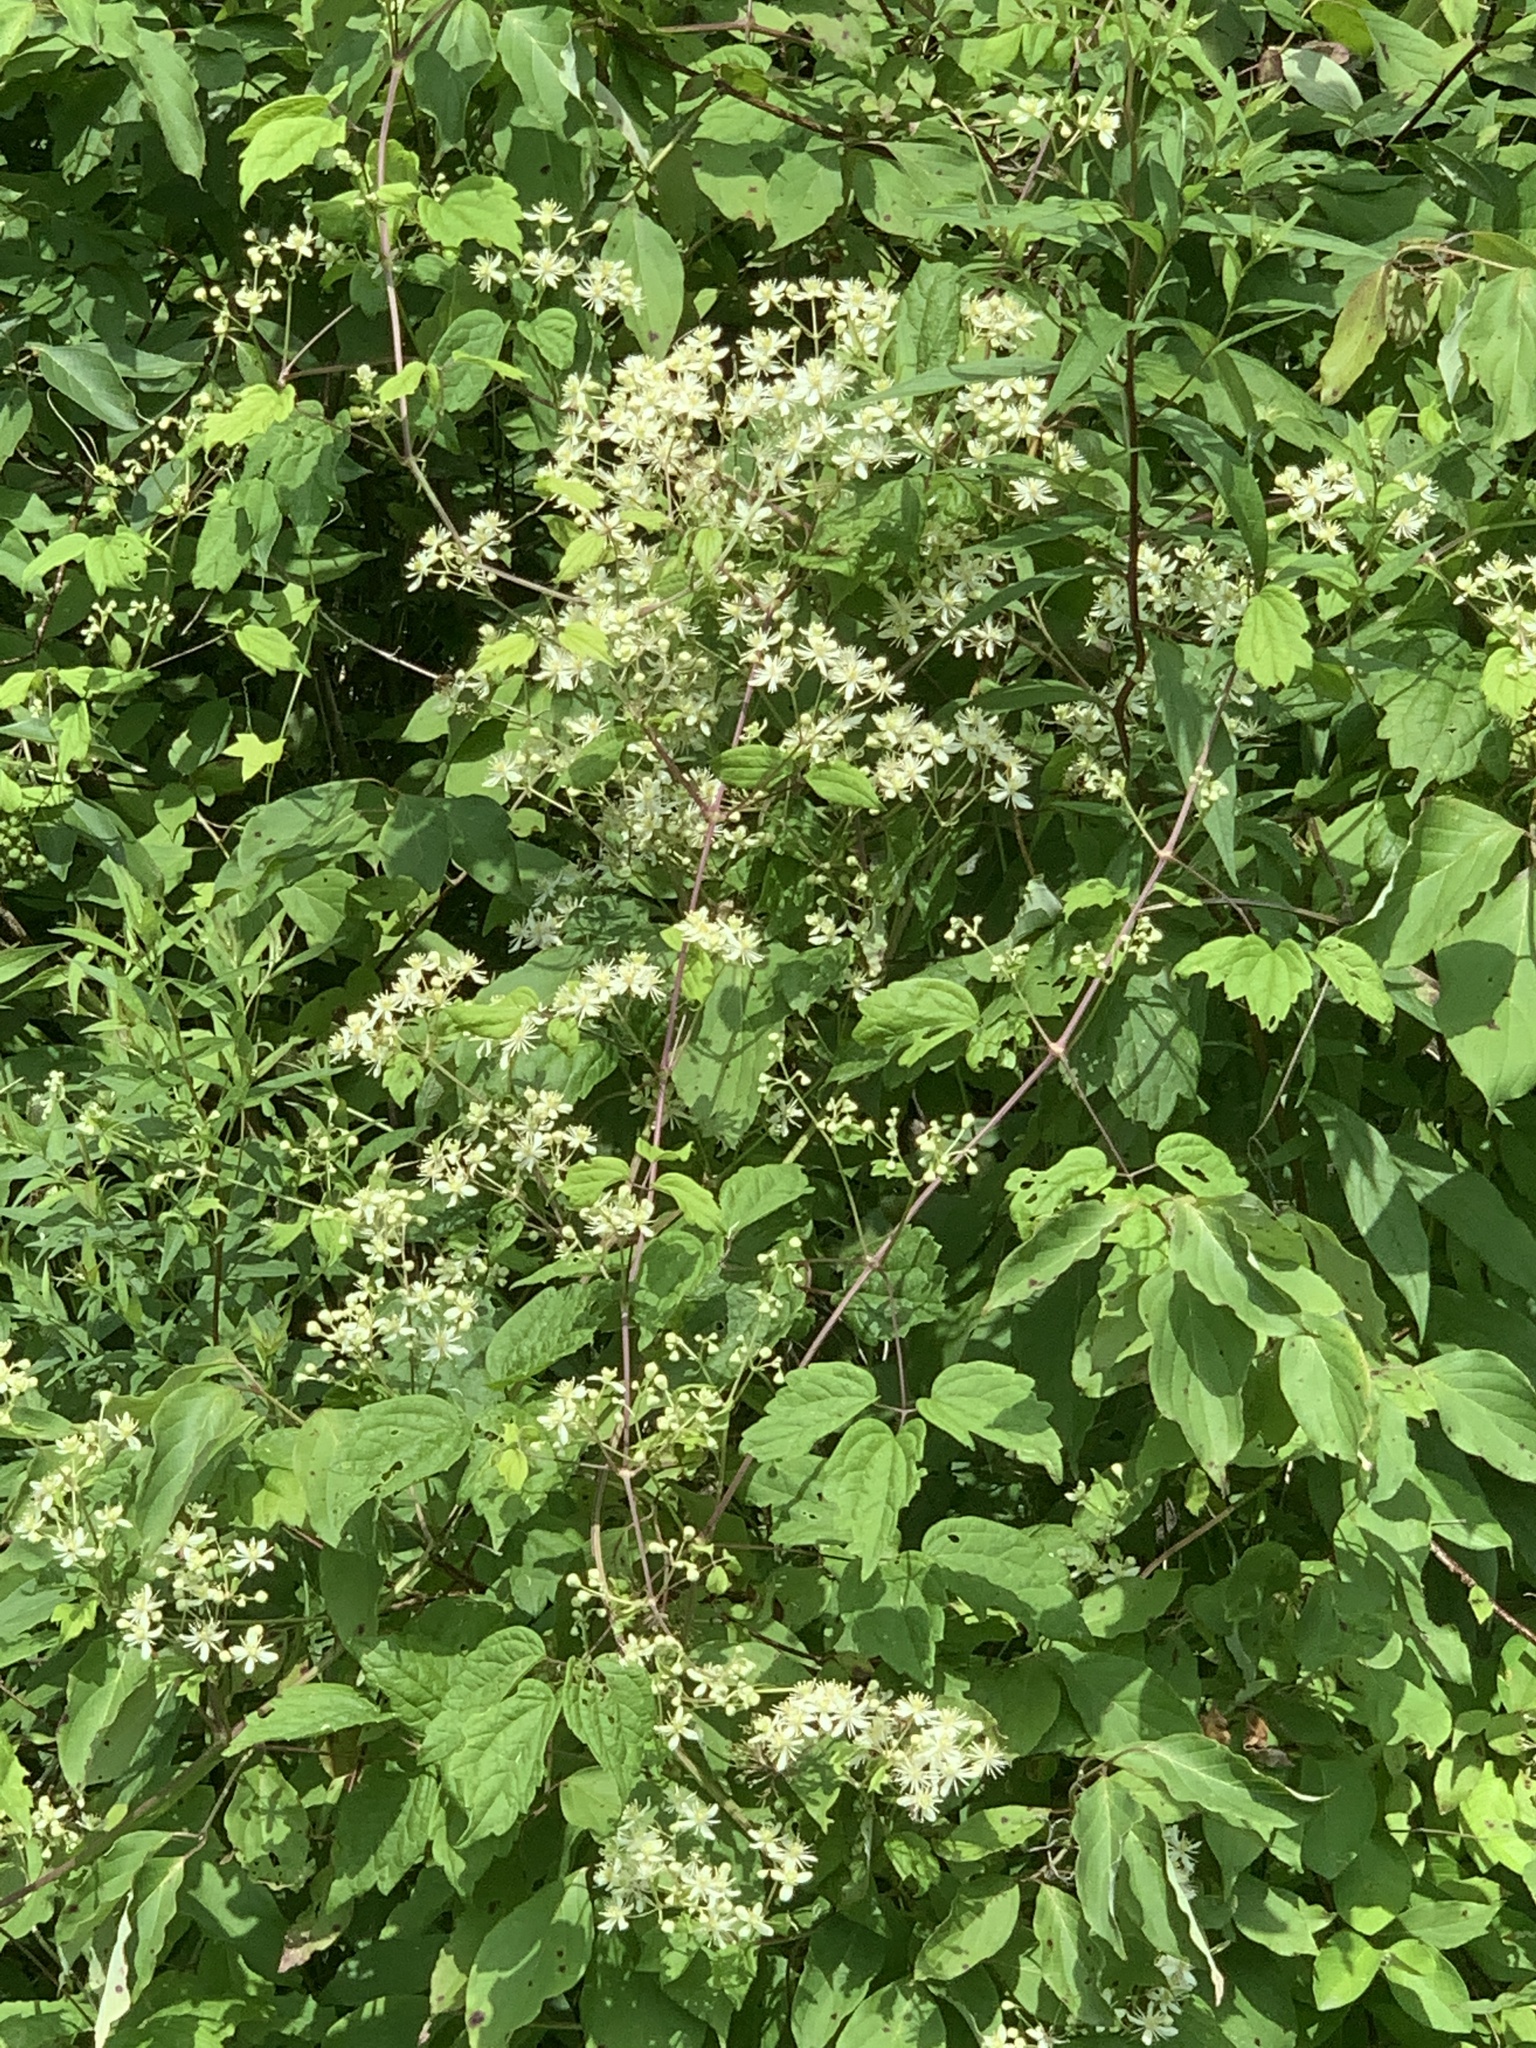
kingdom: Plantae
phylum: Tracheophyta
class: Magnoliopsida
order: Ranunculales
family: Ranunculaceae
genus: Clematis
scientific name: Clematis virginiana
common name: Virgin's-bower
